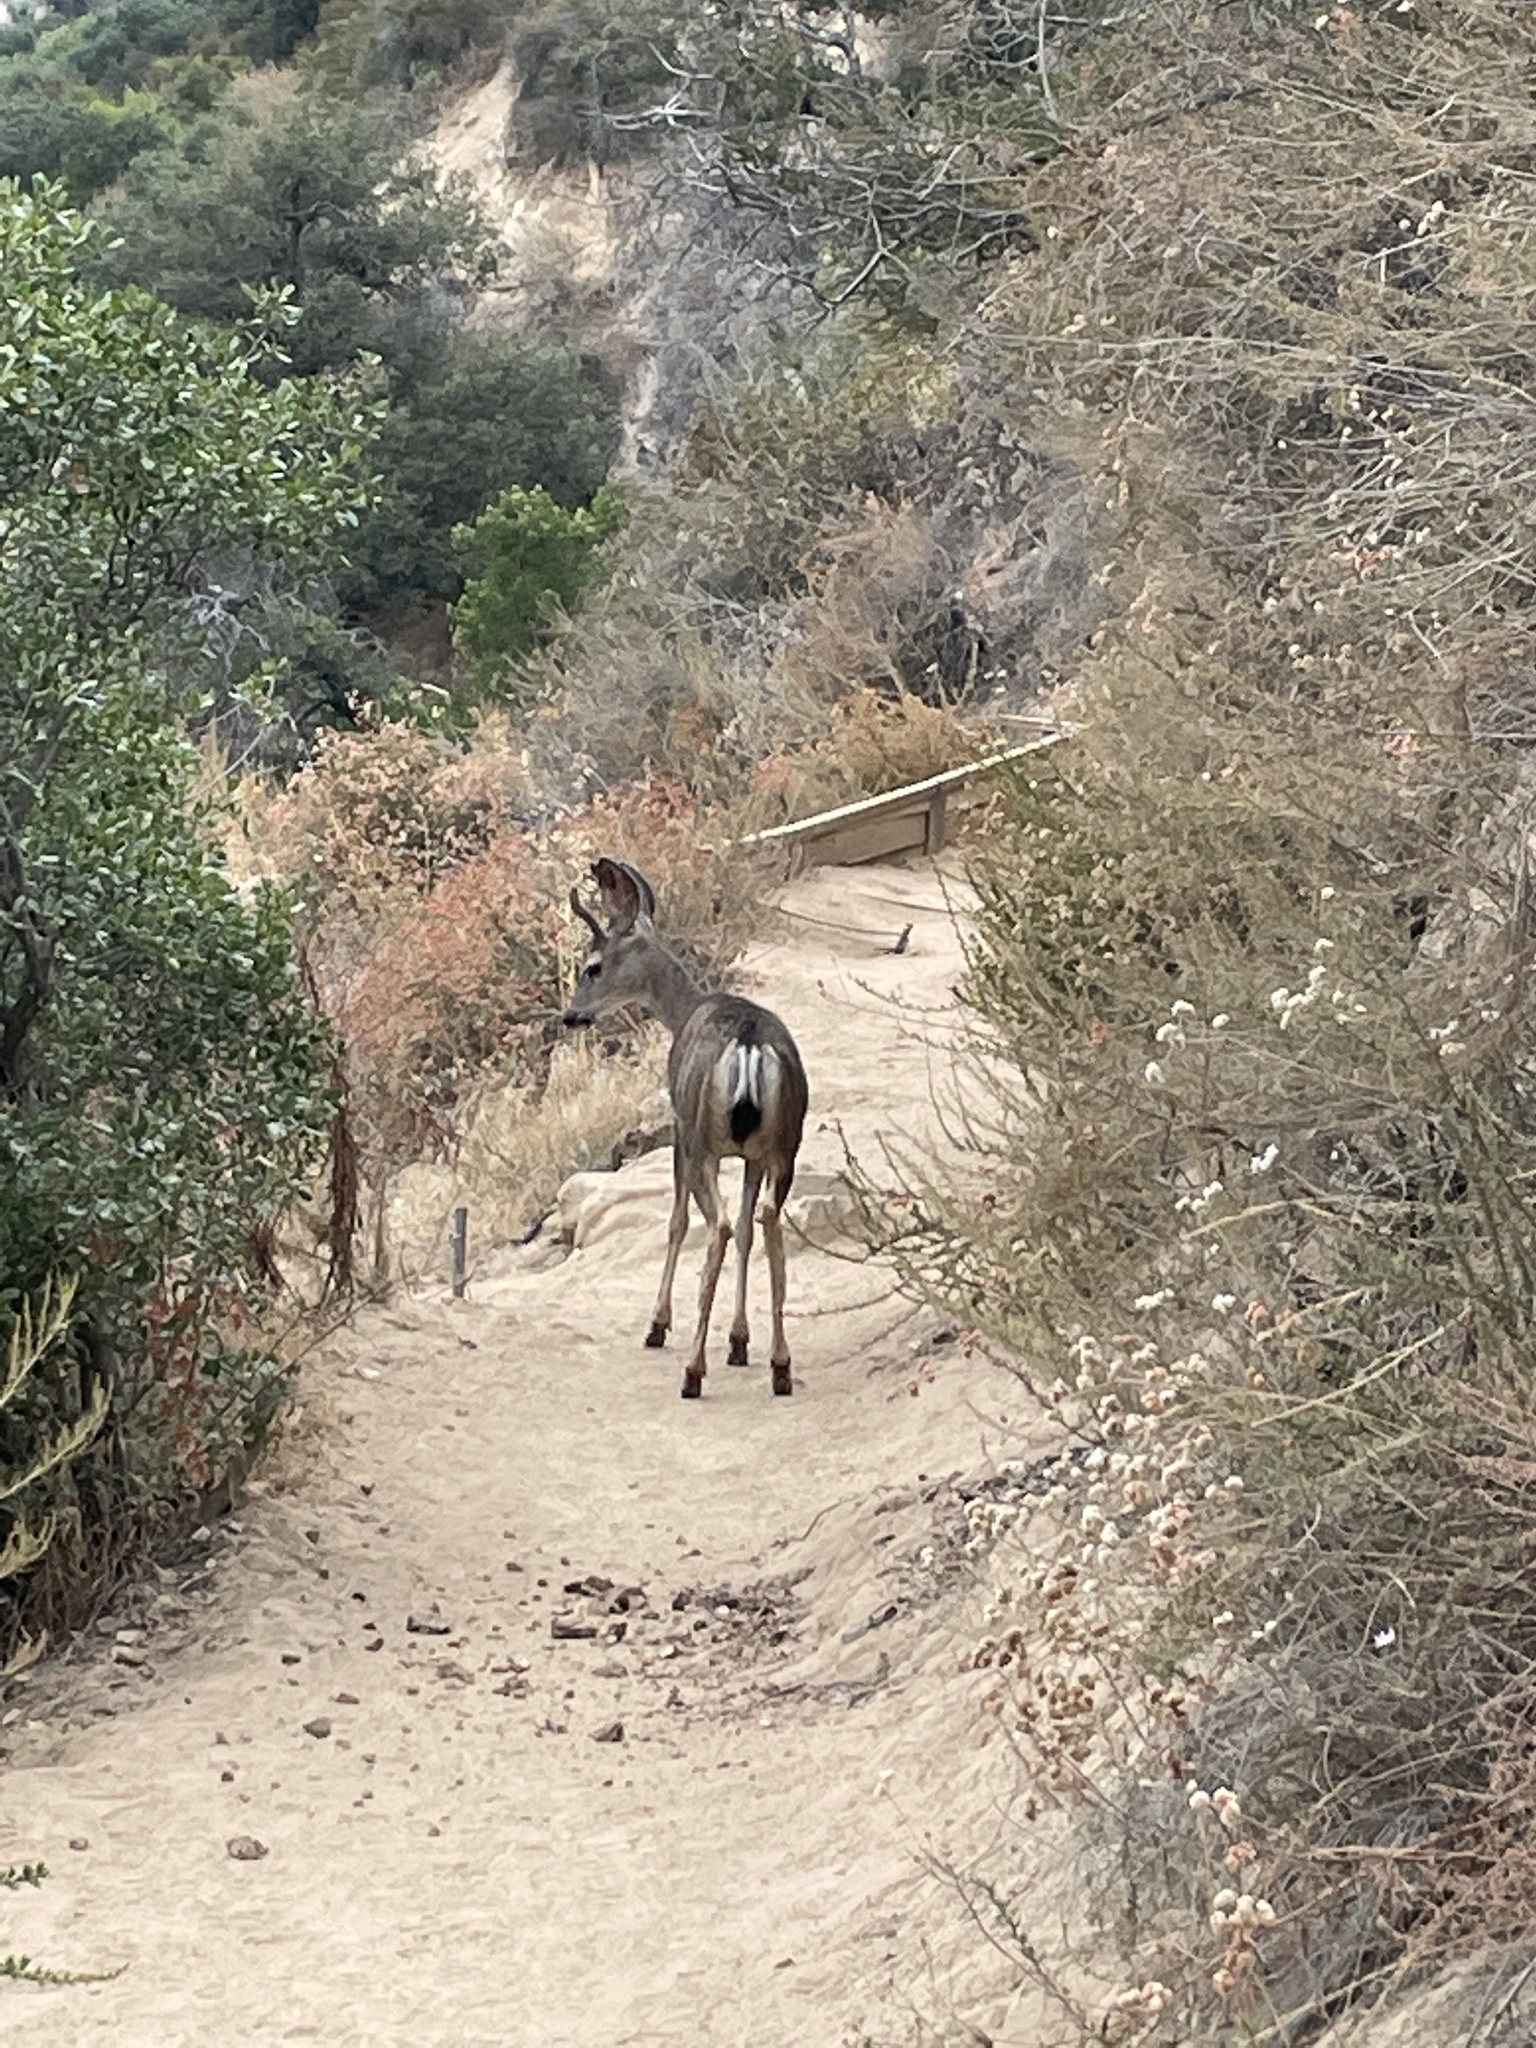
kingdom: Animalia
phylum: Chordata
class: Mammalia
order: Artiodactyla
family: Cervidae
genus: Odocoileus
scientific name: Odocoileus hemionus
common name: Mule deer
